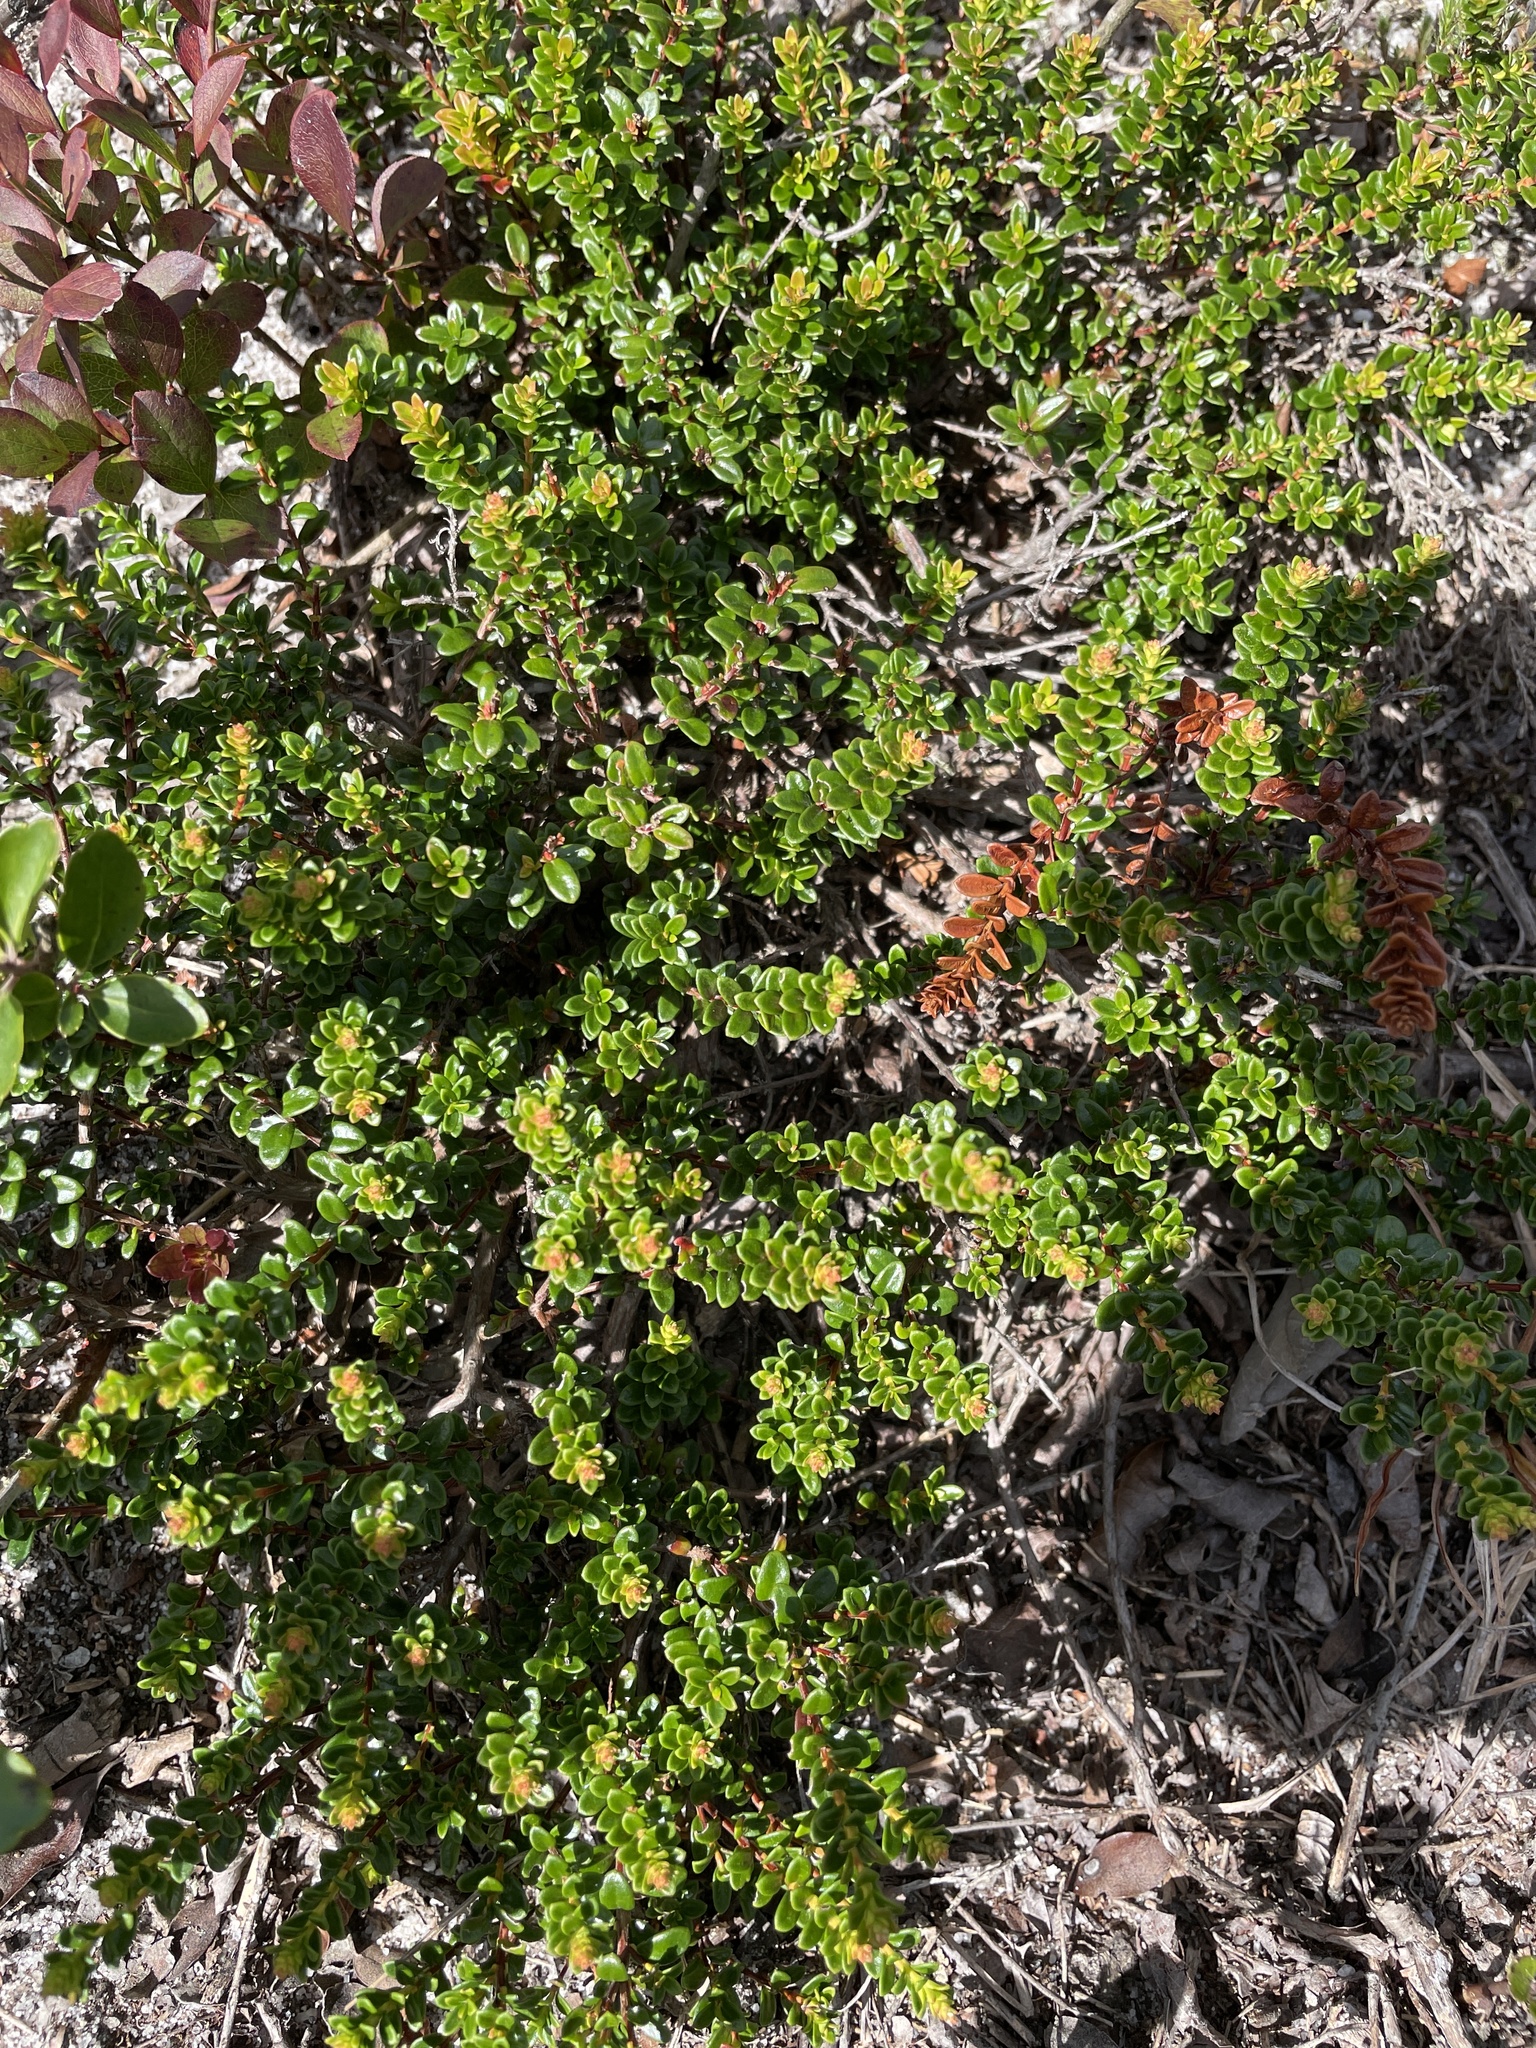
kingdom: Plantae
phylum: Tracheophyta
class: Magnoliopsida
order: Ericales
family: Ericaceae
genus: Kalmia
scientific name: Kalmia buxifolia
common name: Sandmyrtle
